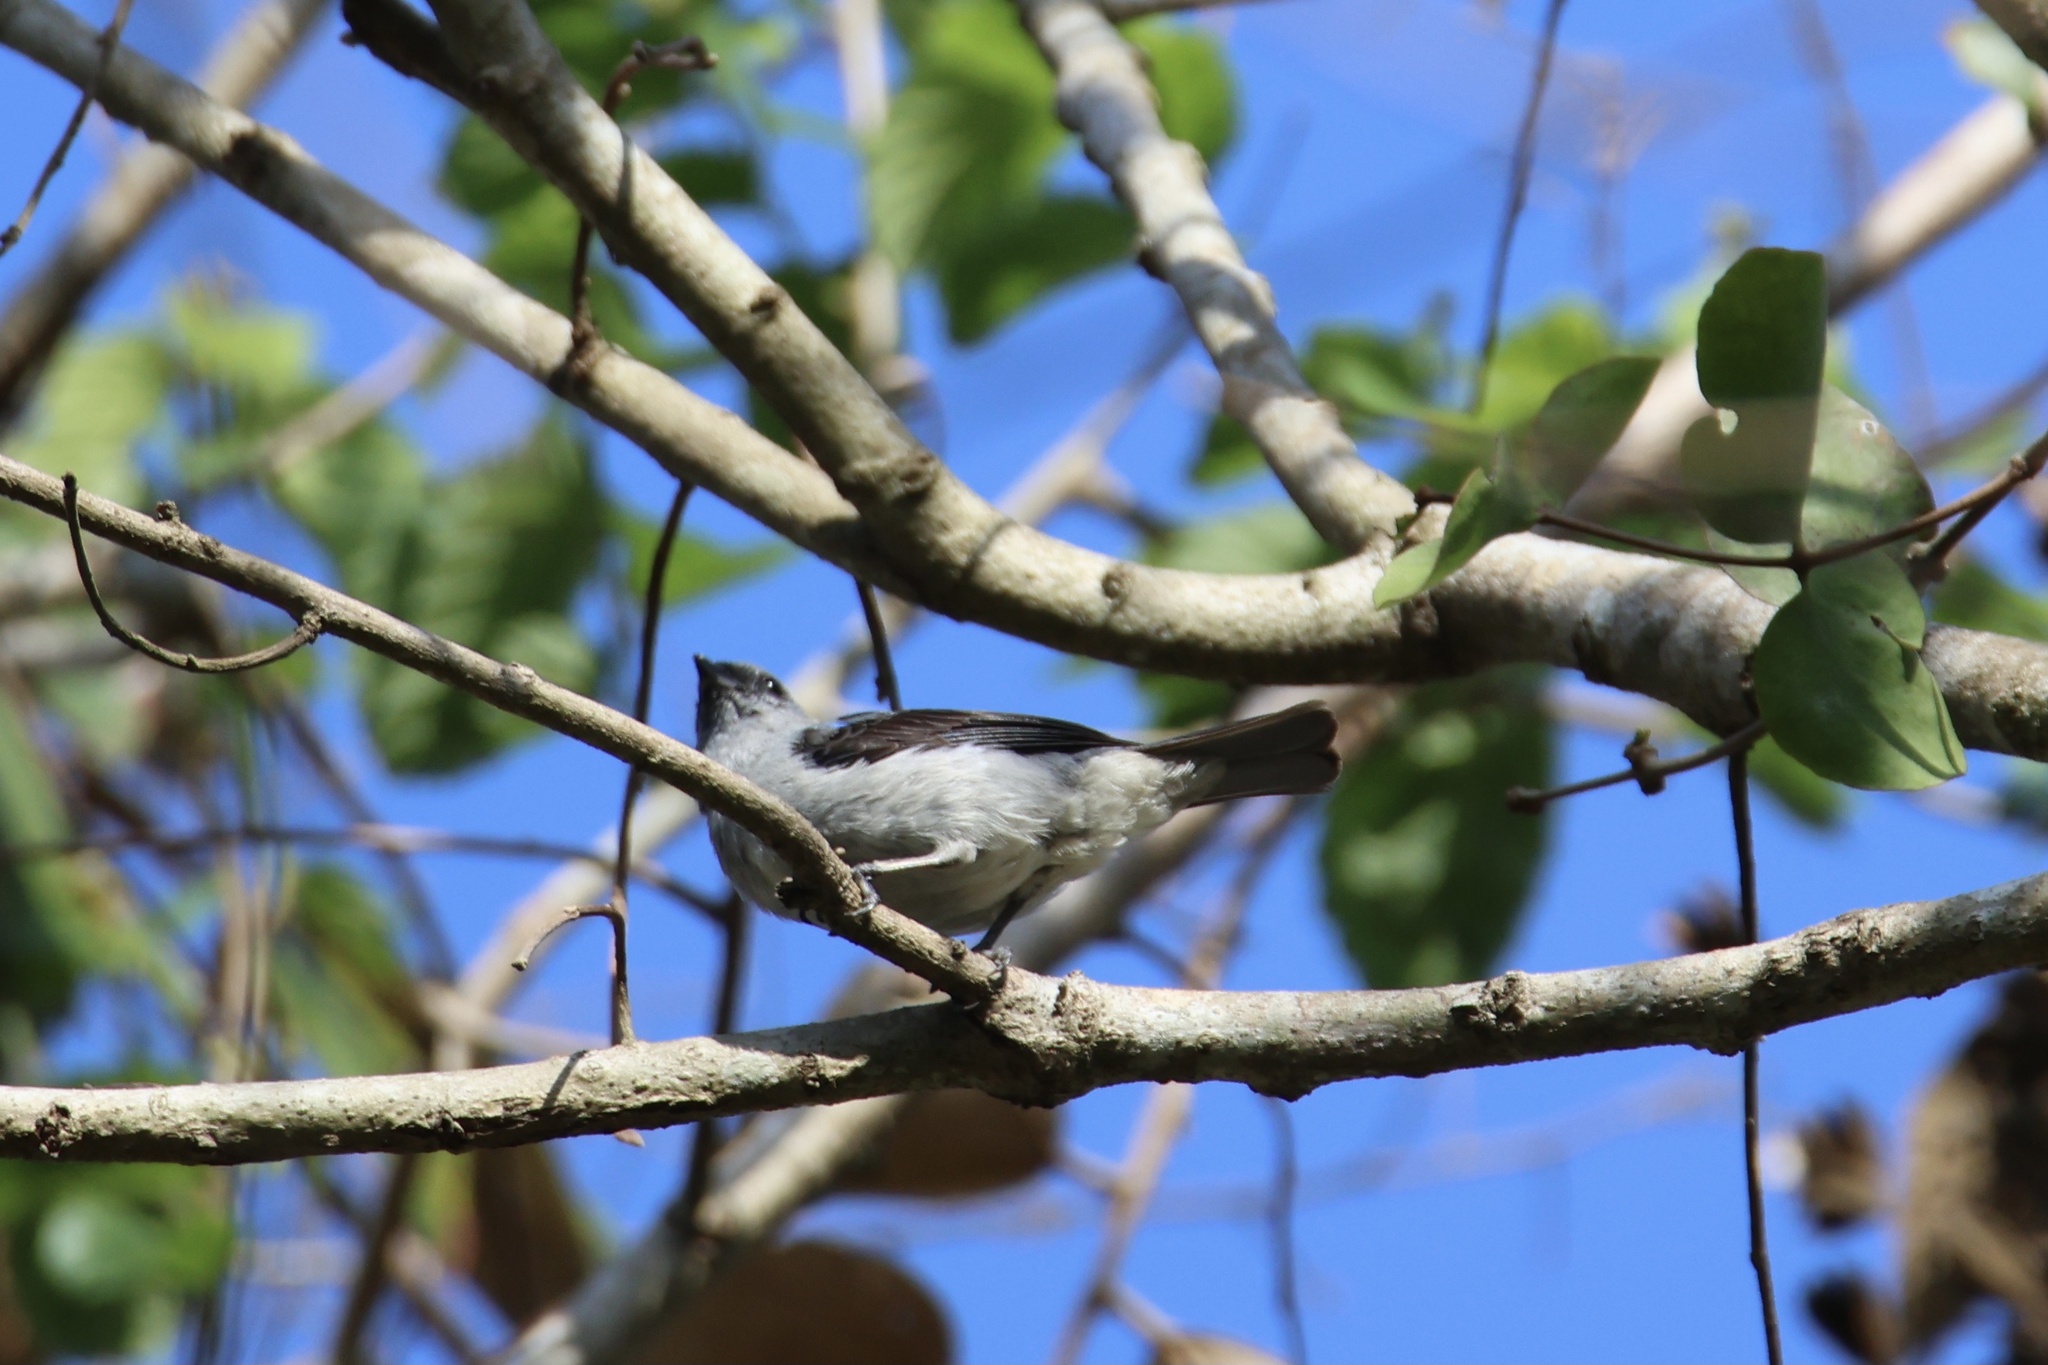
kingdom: Animalia
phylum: Chordata
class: Aves
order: Passeriformes
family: Thraupidae
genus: Tangara
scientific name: Tangara inornata
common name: Plain-colored tanager
